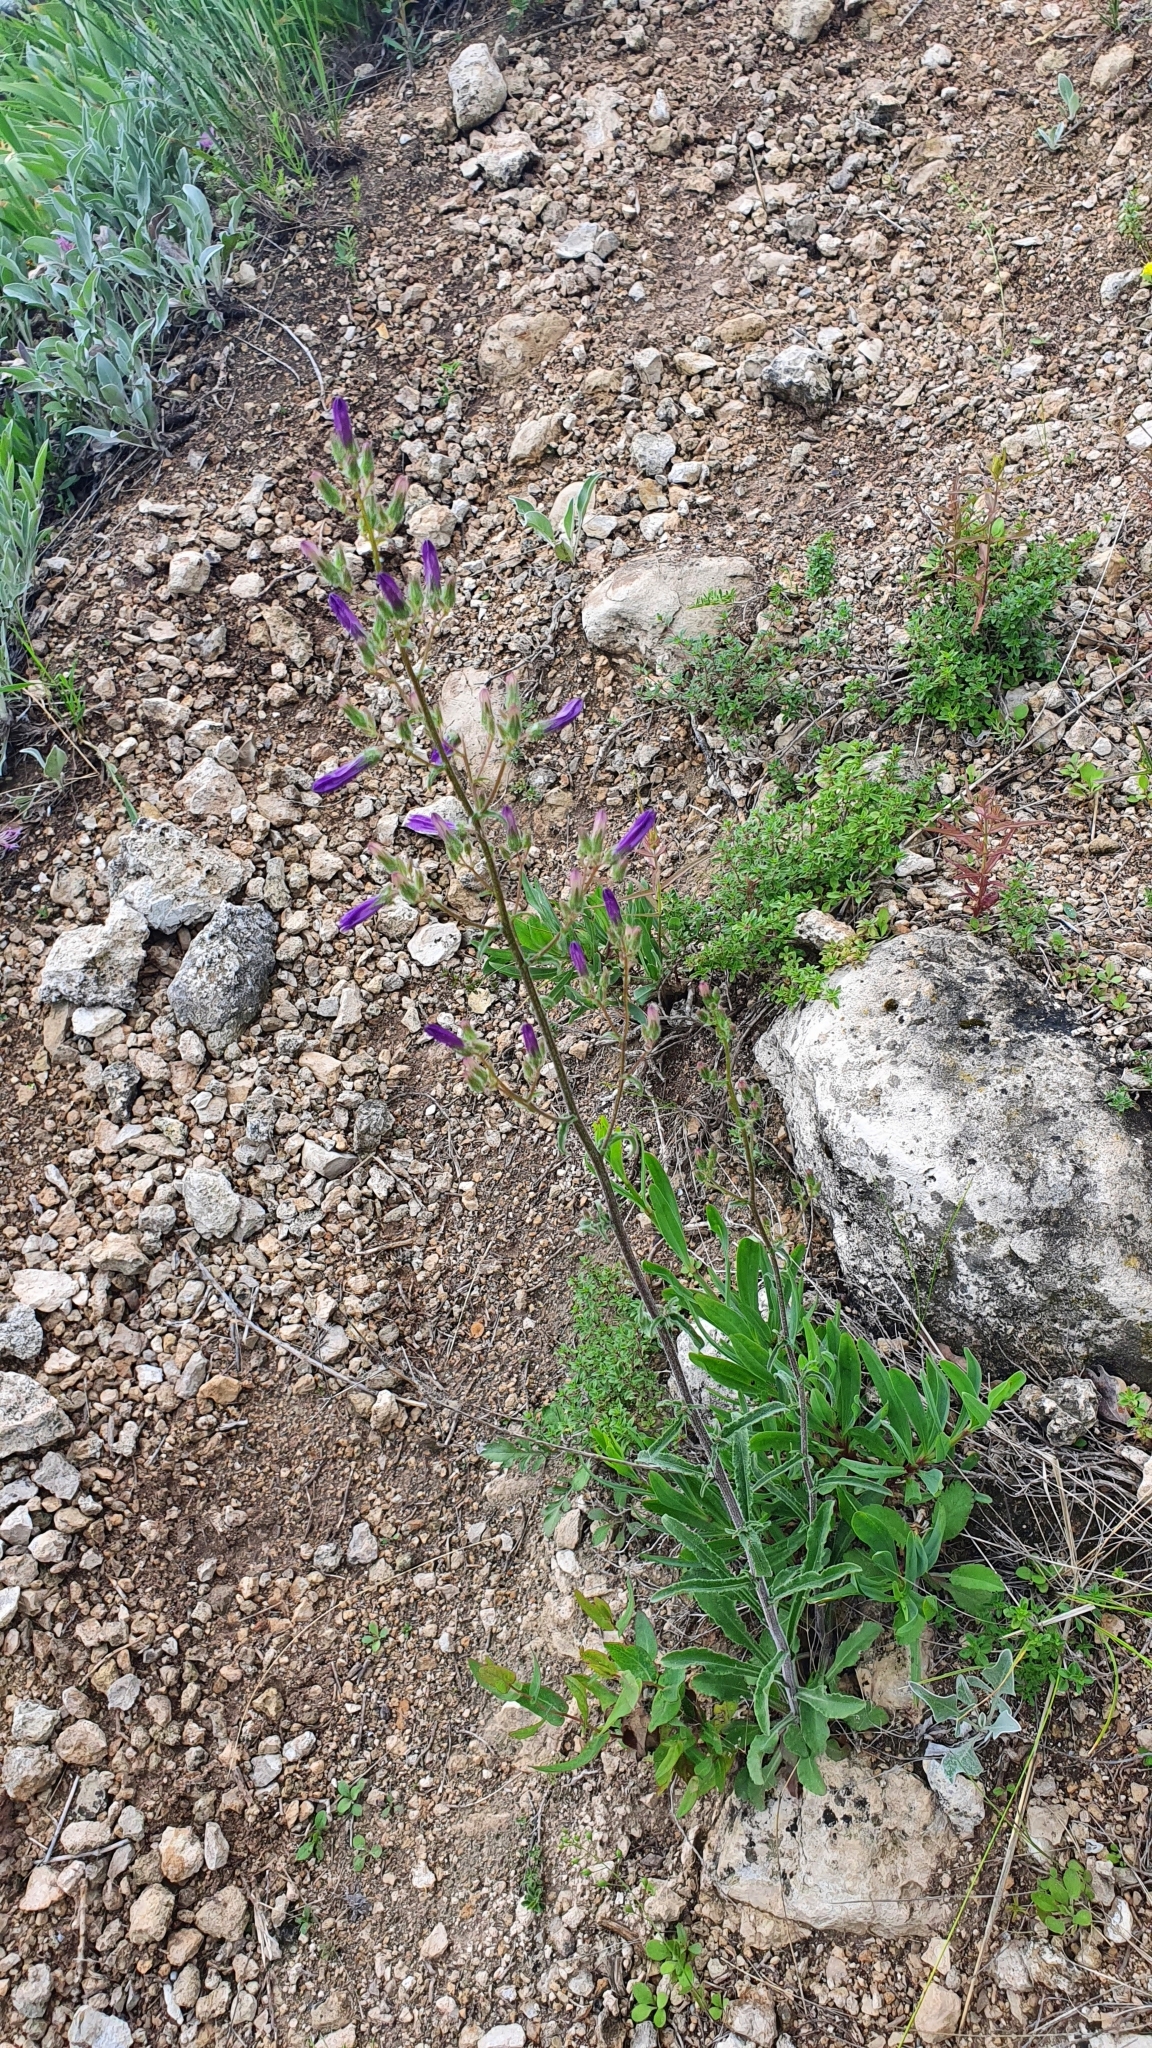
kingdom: Plantae
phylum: Tracheophyta
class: Magnoliopsida
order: Asterales
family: Campanulaceae
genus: Campanula
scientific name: Campanula sibirica
